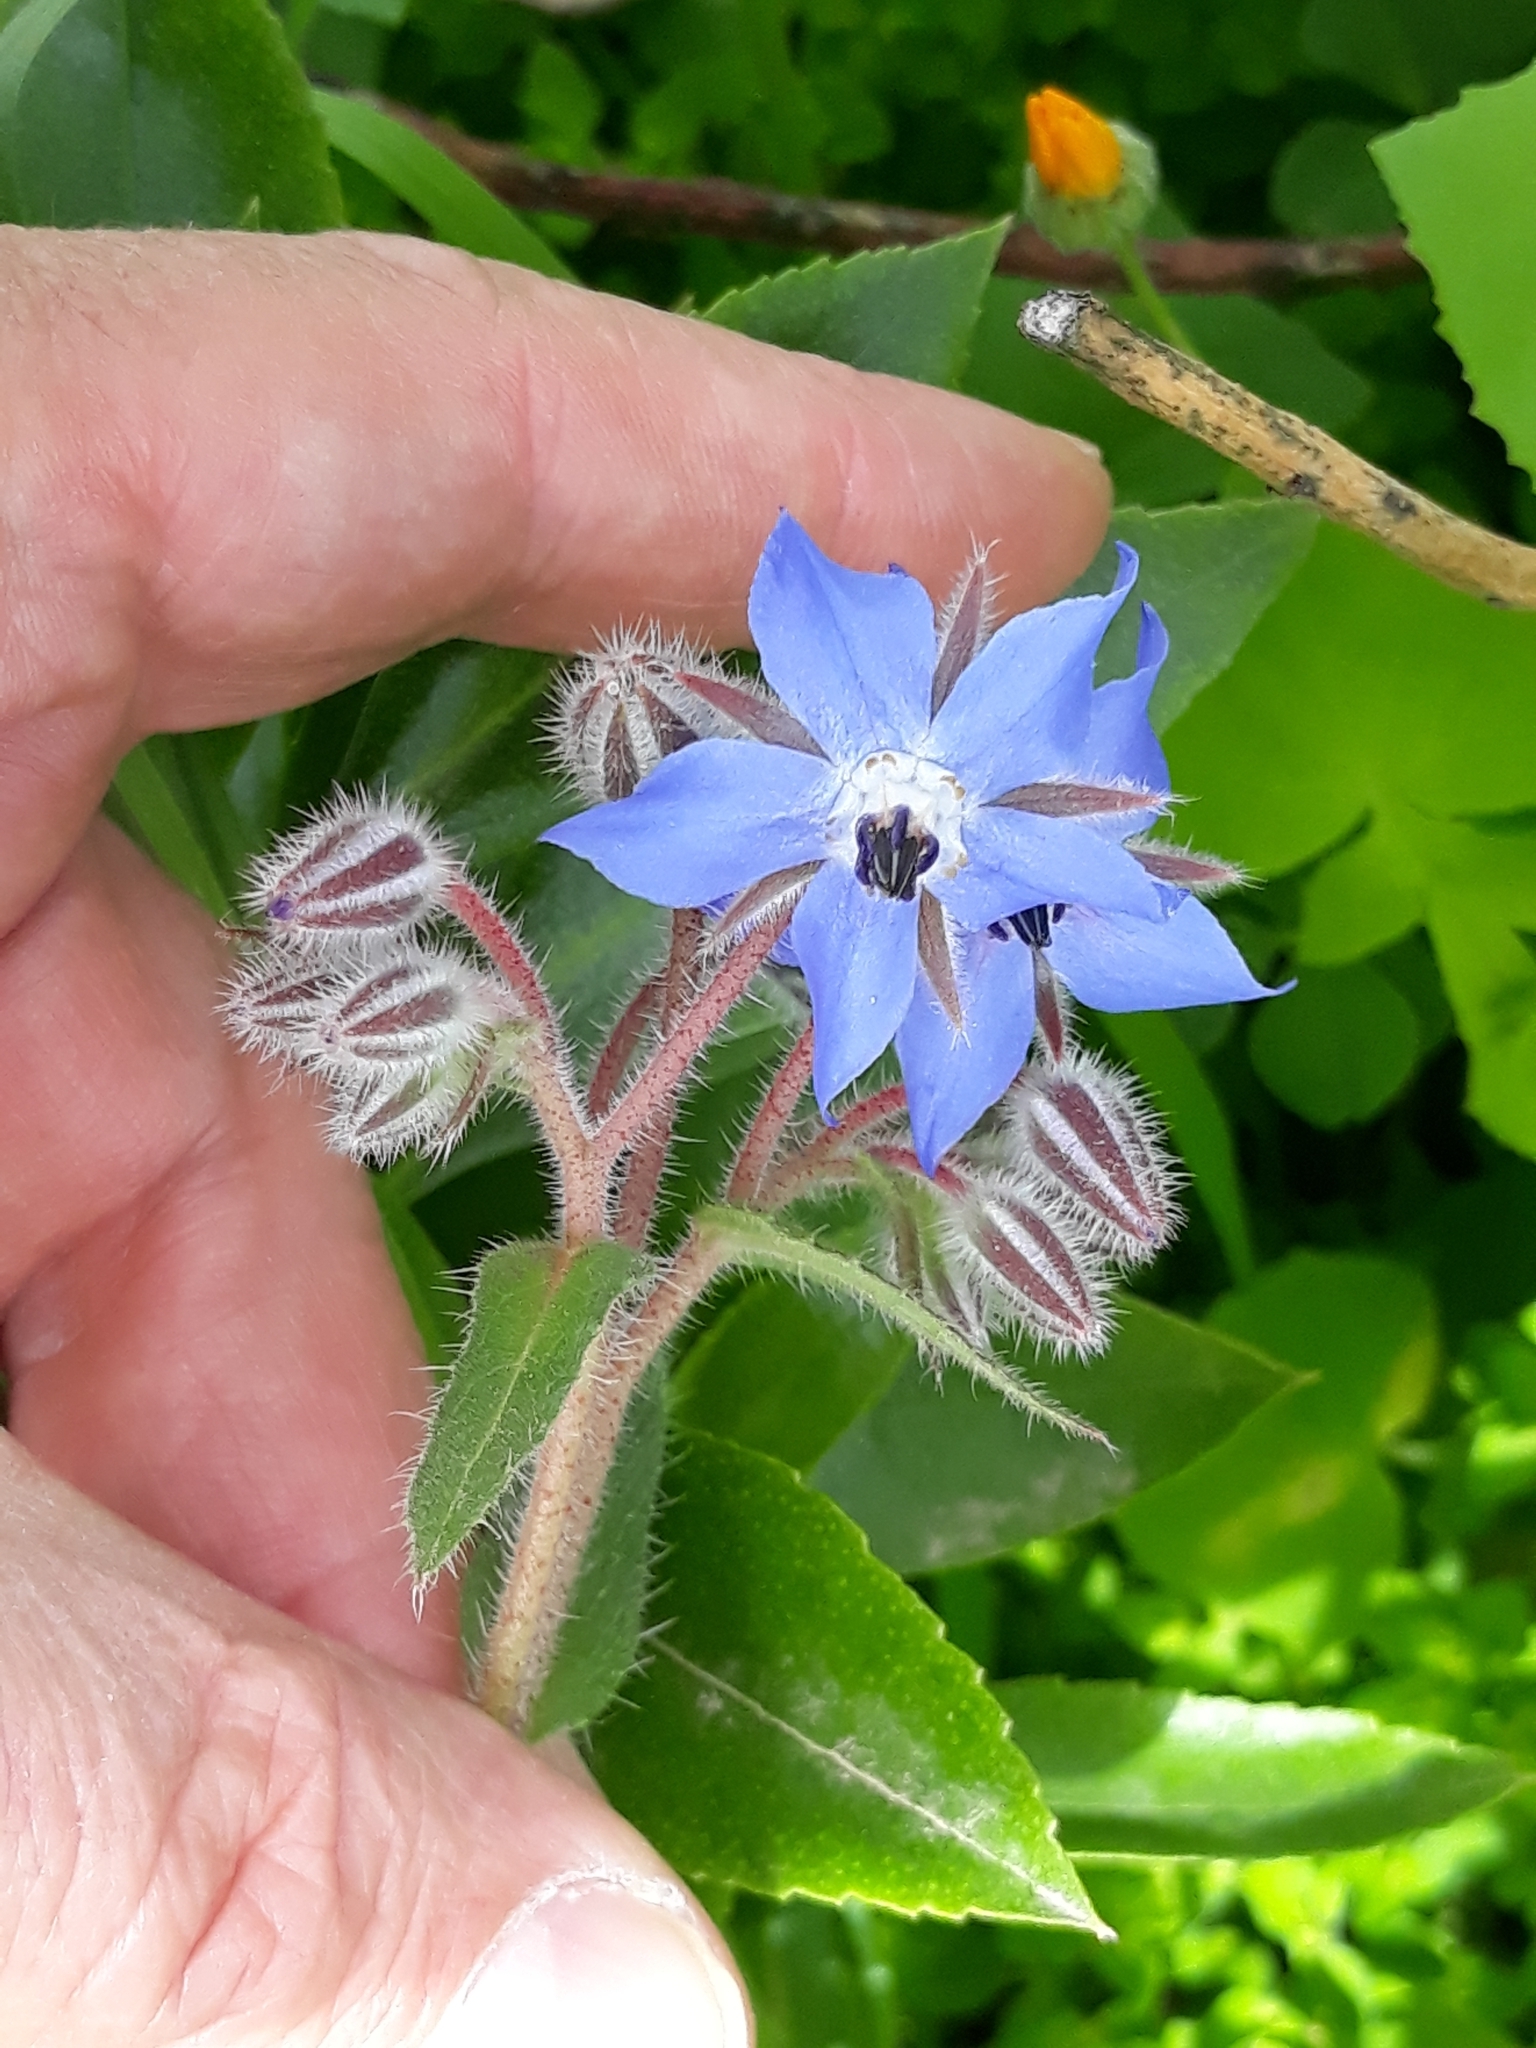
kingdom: Plantae
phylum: Tracheophyta
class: Magnoliopsida
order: Boraginales
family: Boraginaceae
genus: Borago
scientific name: Borago officinalis
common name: Borage
